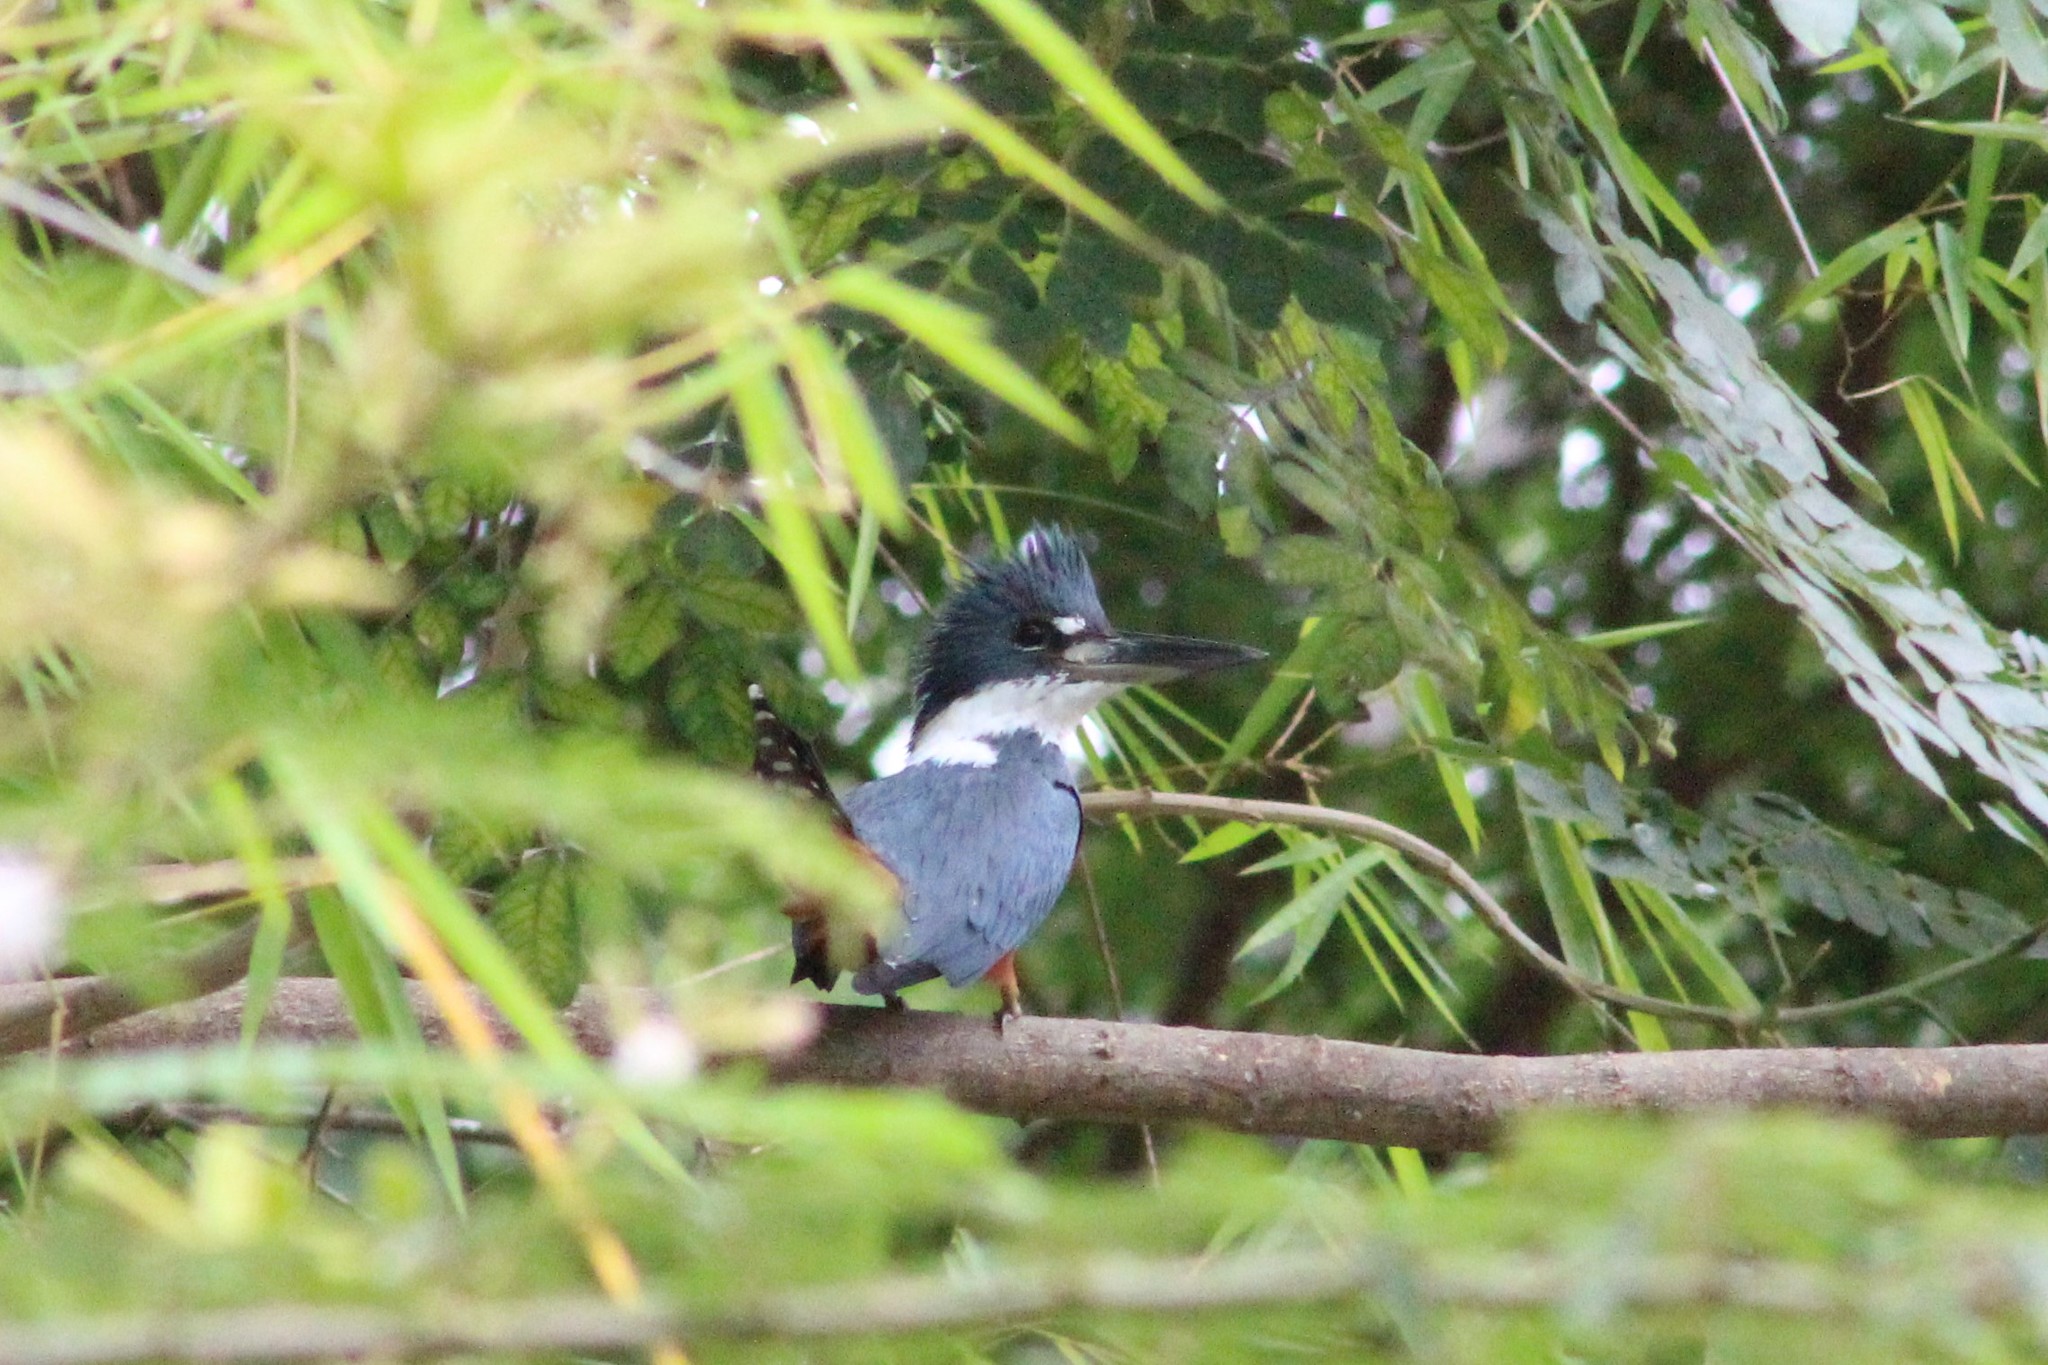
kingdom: Animalia
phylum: Chordata
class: Aves
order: Coraciiformes
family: Alcedinidae
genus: Megaceryle
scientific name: Megaceryle torquata
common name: Ringed kingfisher
